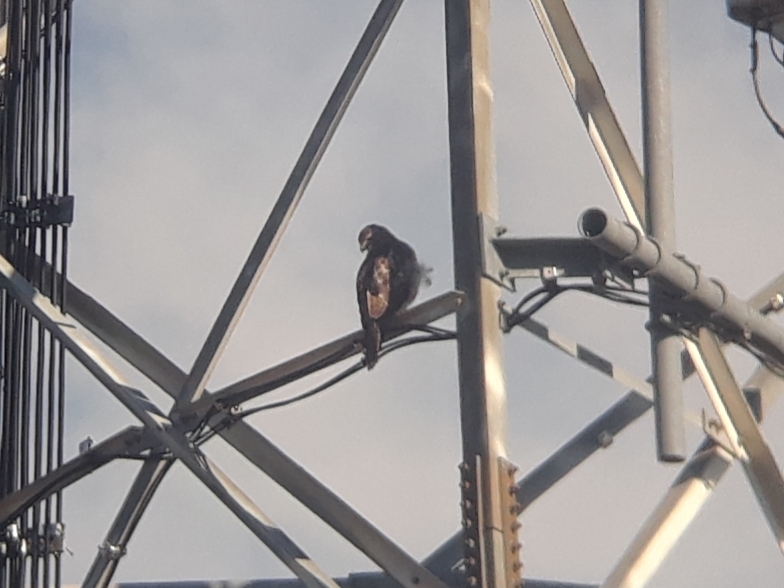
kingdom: Animalia
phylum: Chordata
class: Aves
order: Accipitriformes
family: Accipitridae
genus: Buteo
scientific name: Buteo jamaicensis
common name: Red-tailed hawk
